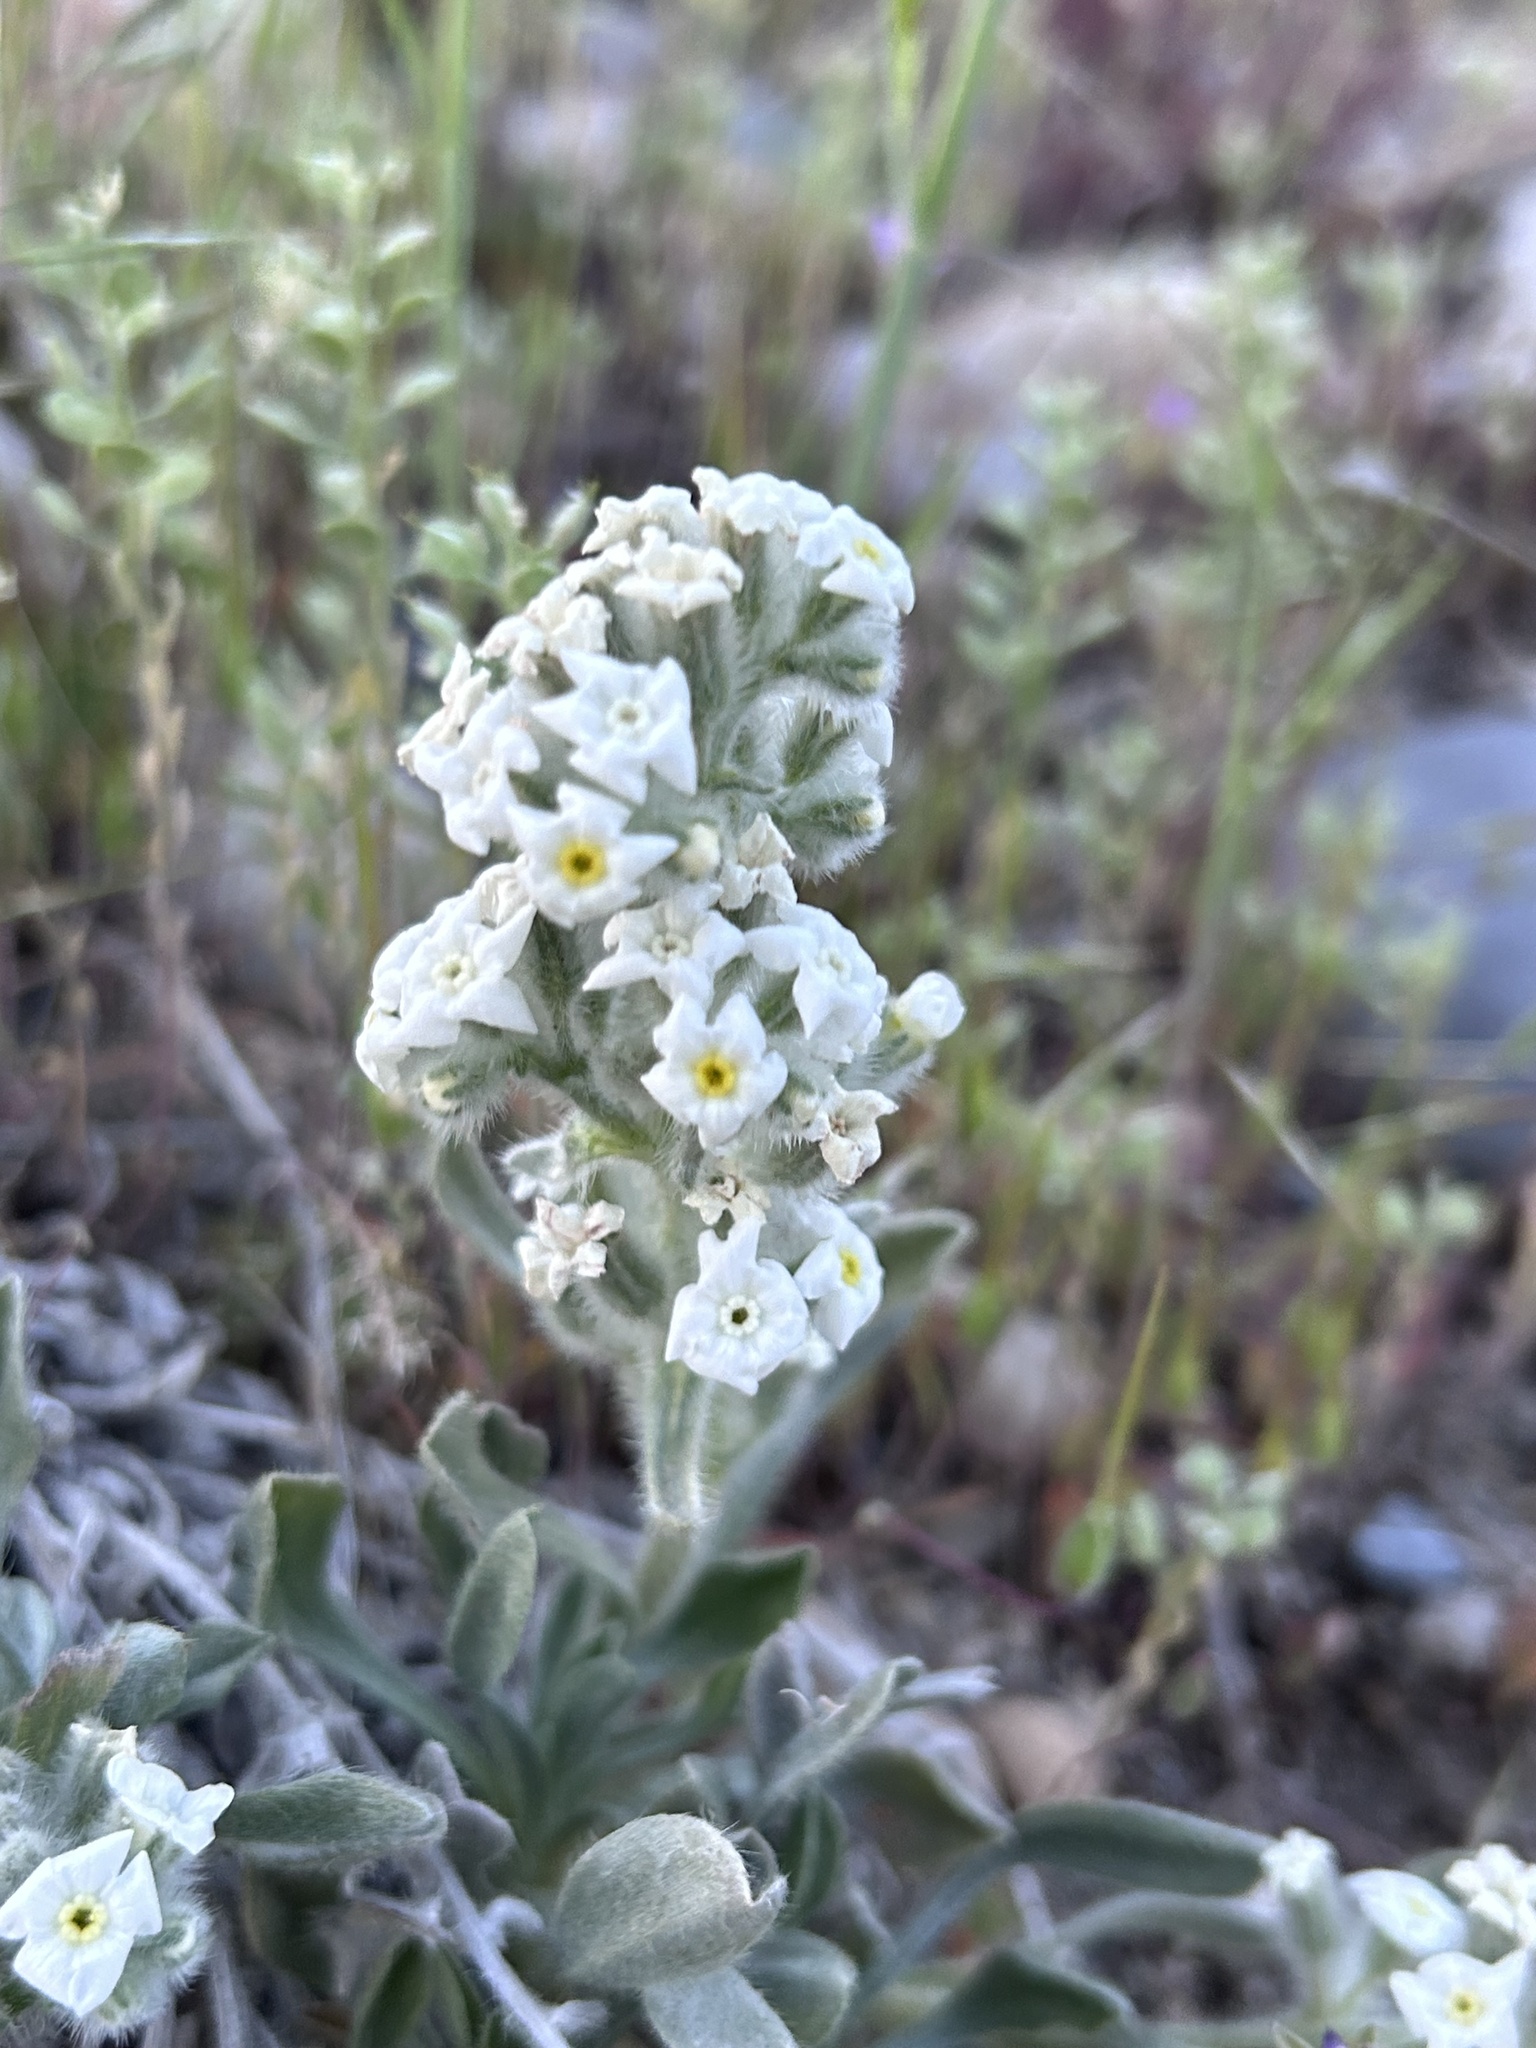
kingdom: Plantae
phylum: Tracheophyta
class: Magnoliopsida
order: Boraginales
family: Boraginaceae
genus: Oreocarya
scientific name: Oreocarya humilis
